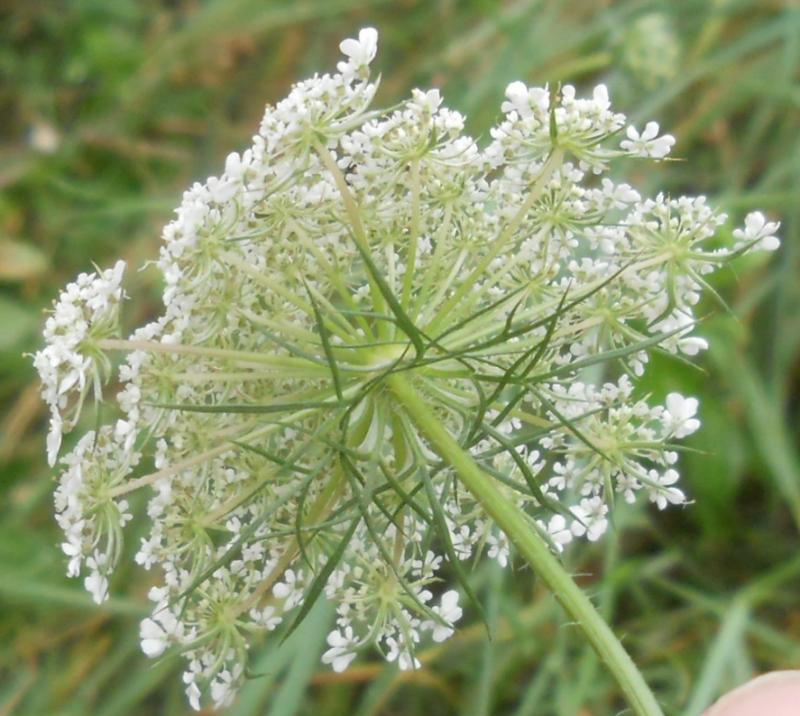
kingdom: Plantae
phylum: Tracheophyta
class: Magnoliopsida
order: Apiales
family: Apiaceae
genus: Daucus
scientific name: Daucus carota
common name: Wild carrot
